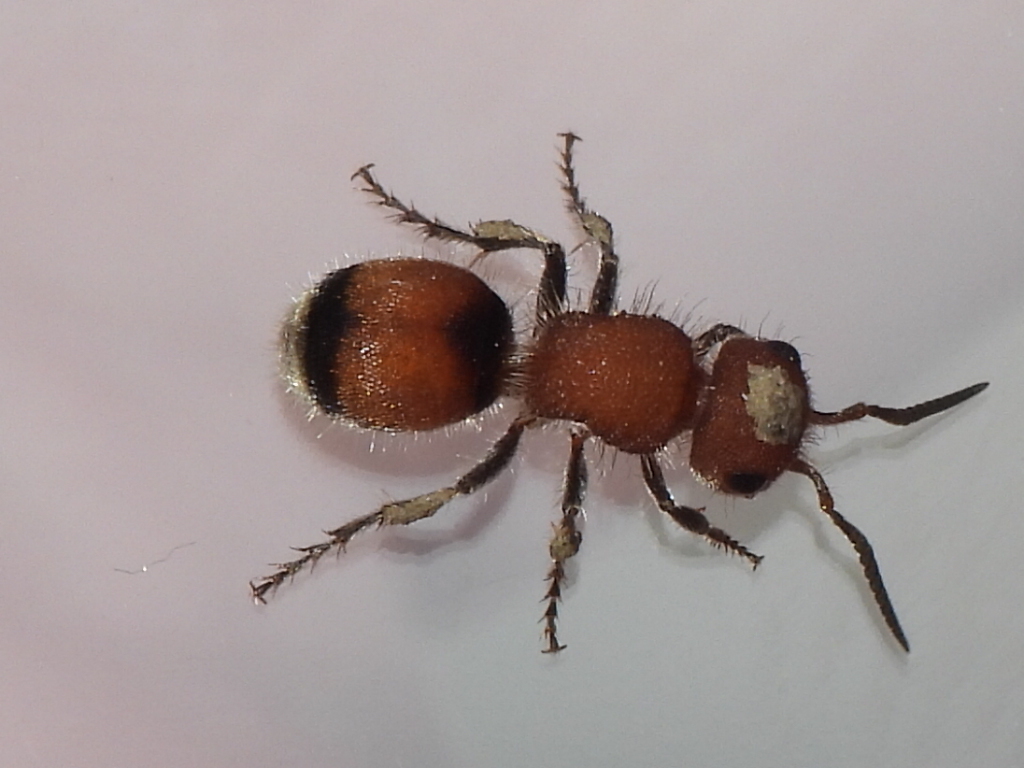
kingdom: Animalia
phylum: Arthropoda
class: Insecta
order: Hymenoptera
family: Mutillidae
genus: Pseudomethoca
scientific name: Pseudomethoca
